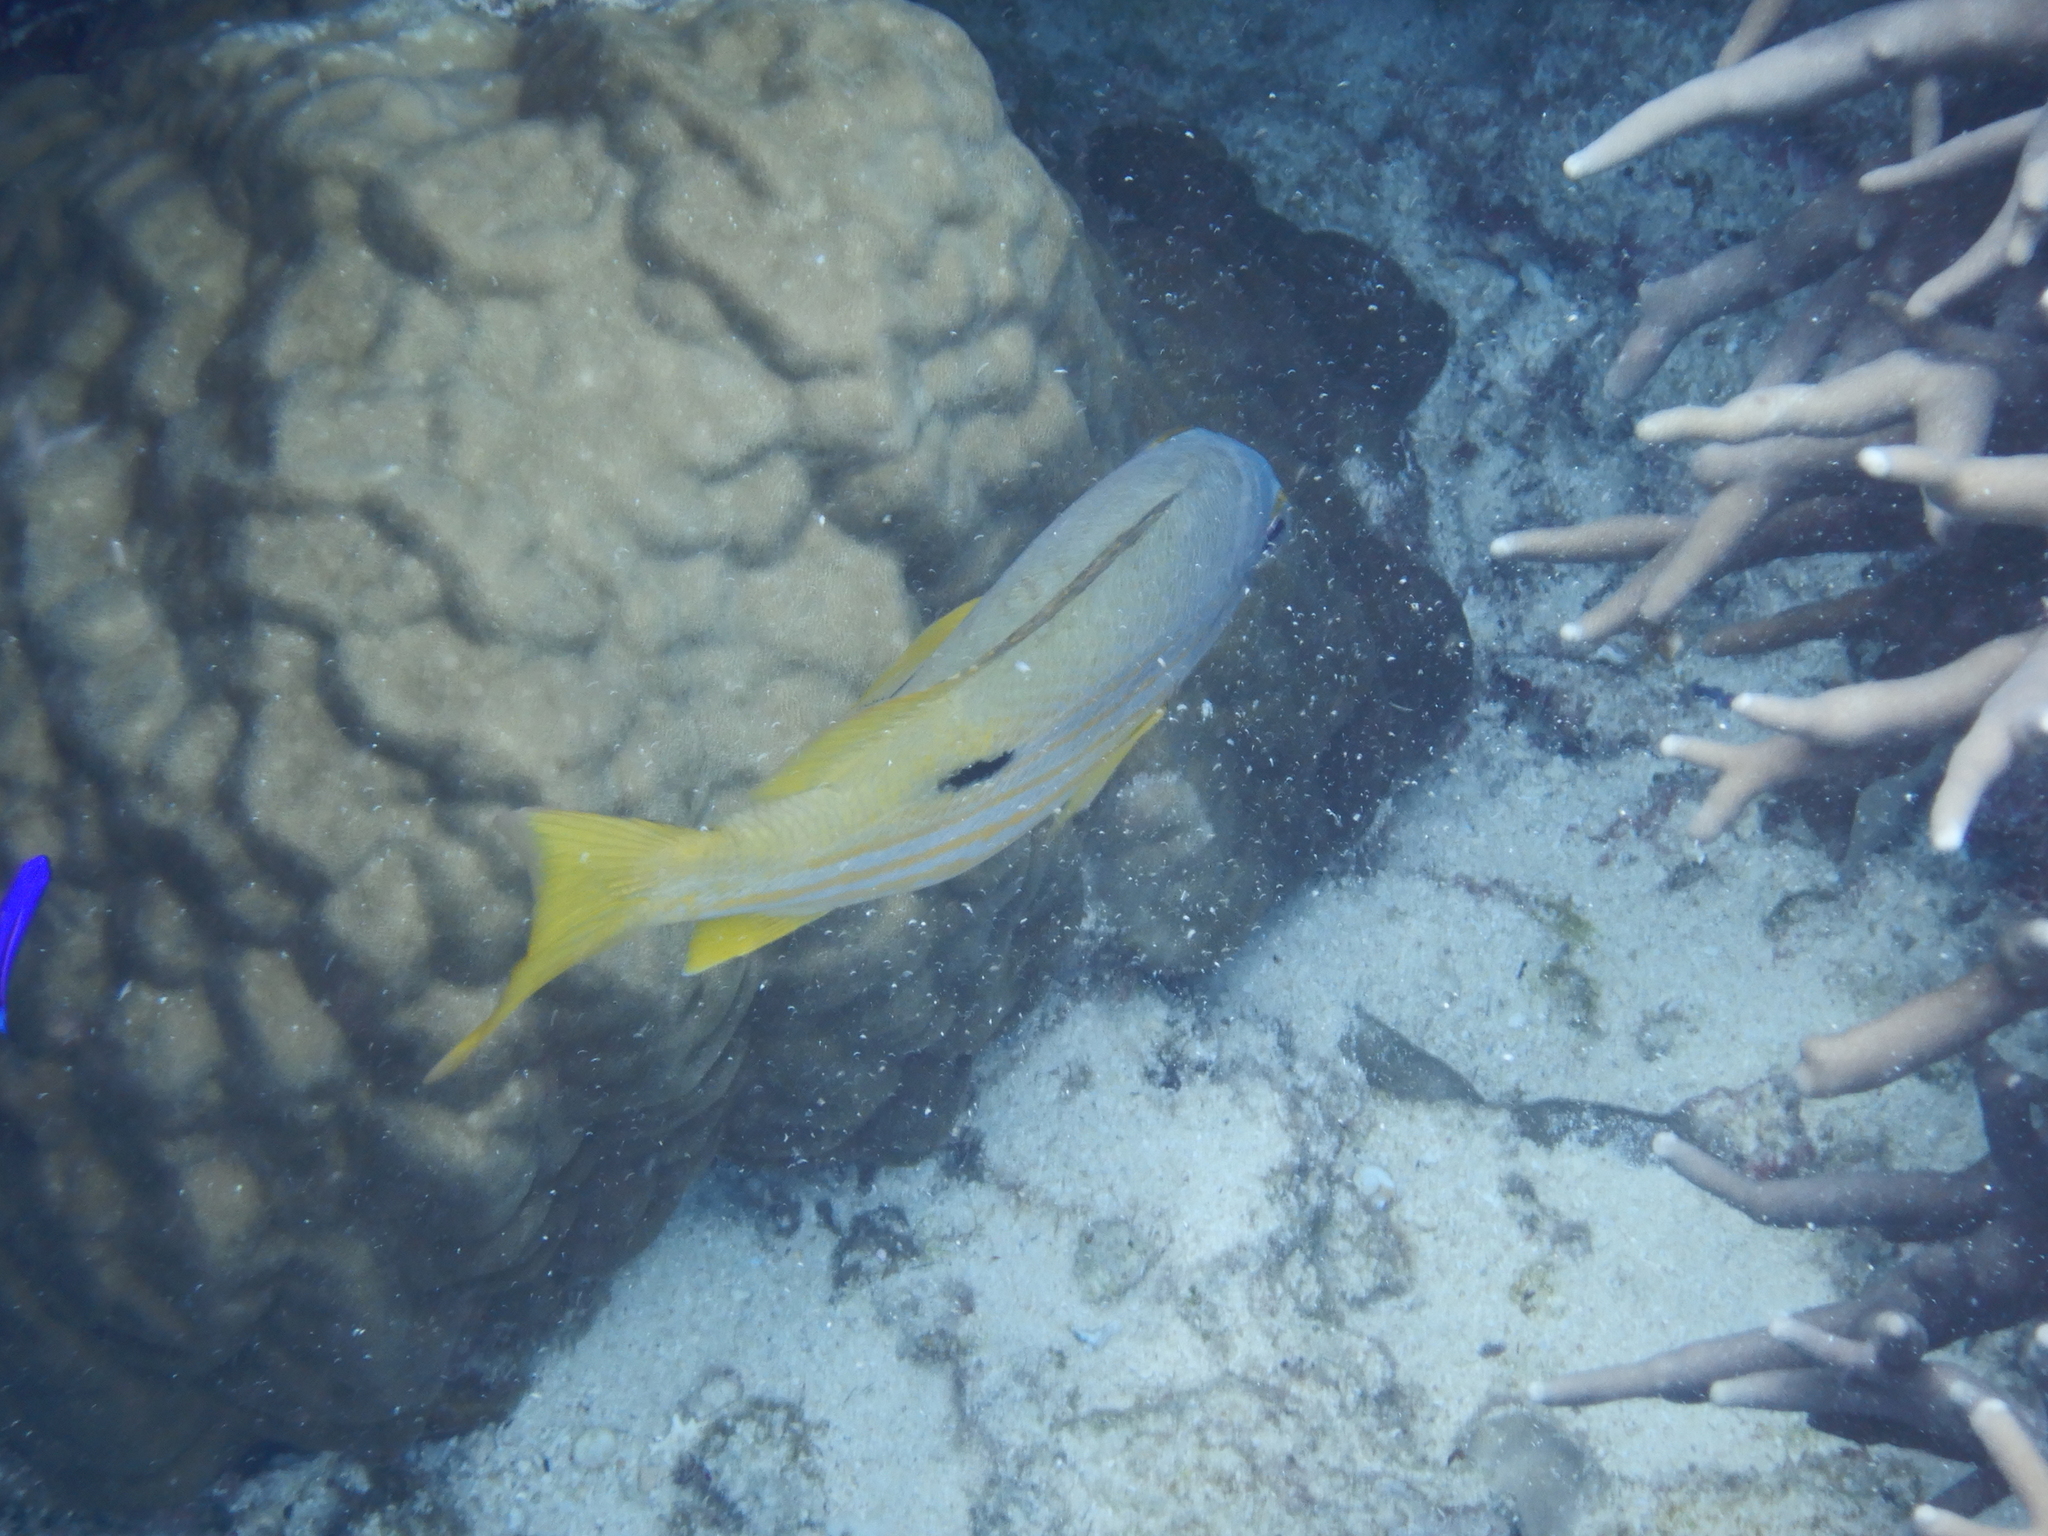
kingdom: Animalia
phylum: Chordata
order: Perciformes
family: Lutjanidae
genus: Lutjanus
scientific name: Lutjanus fulviflamma
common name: Blackspot snapper
